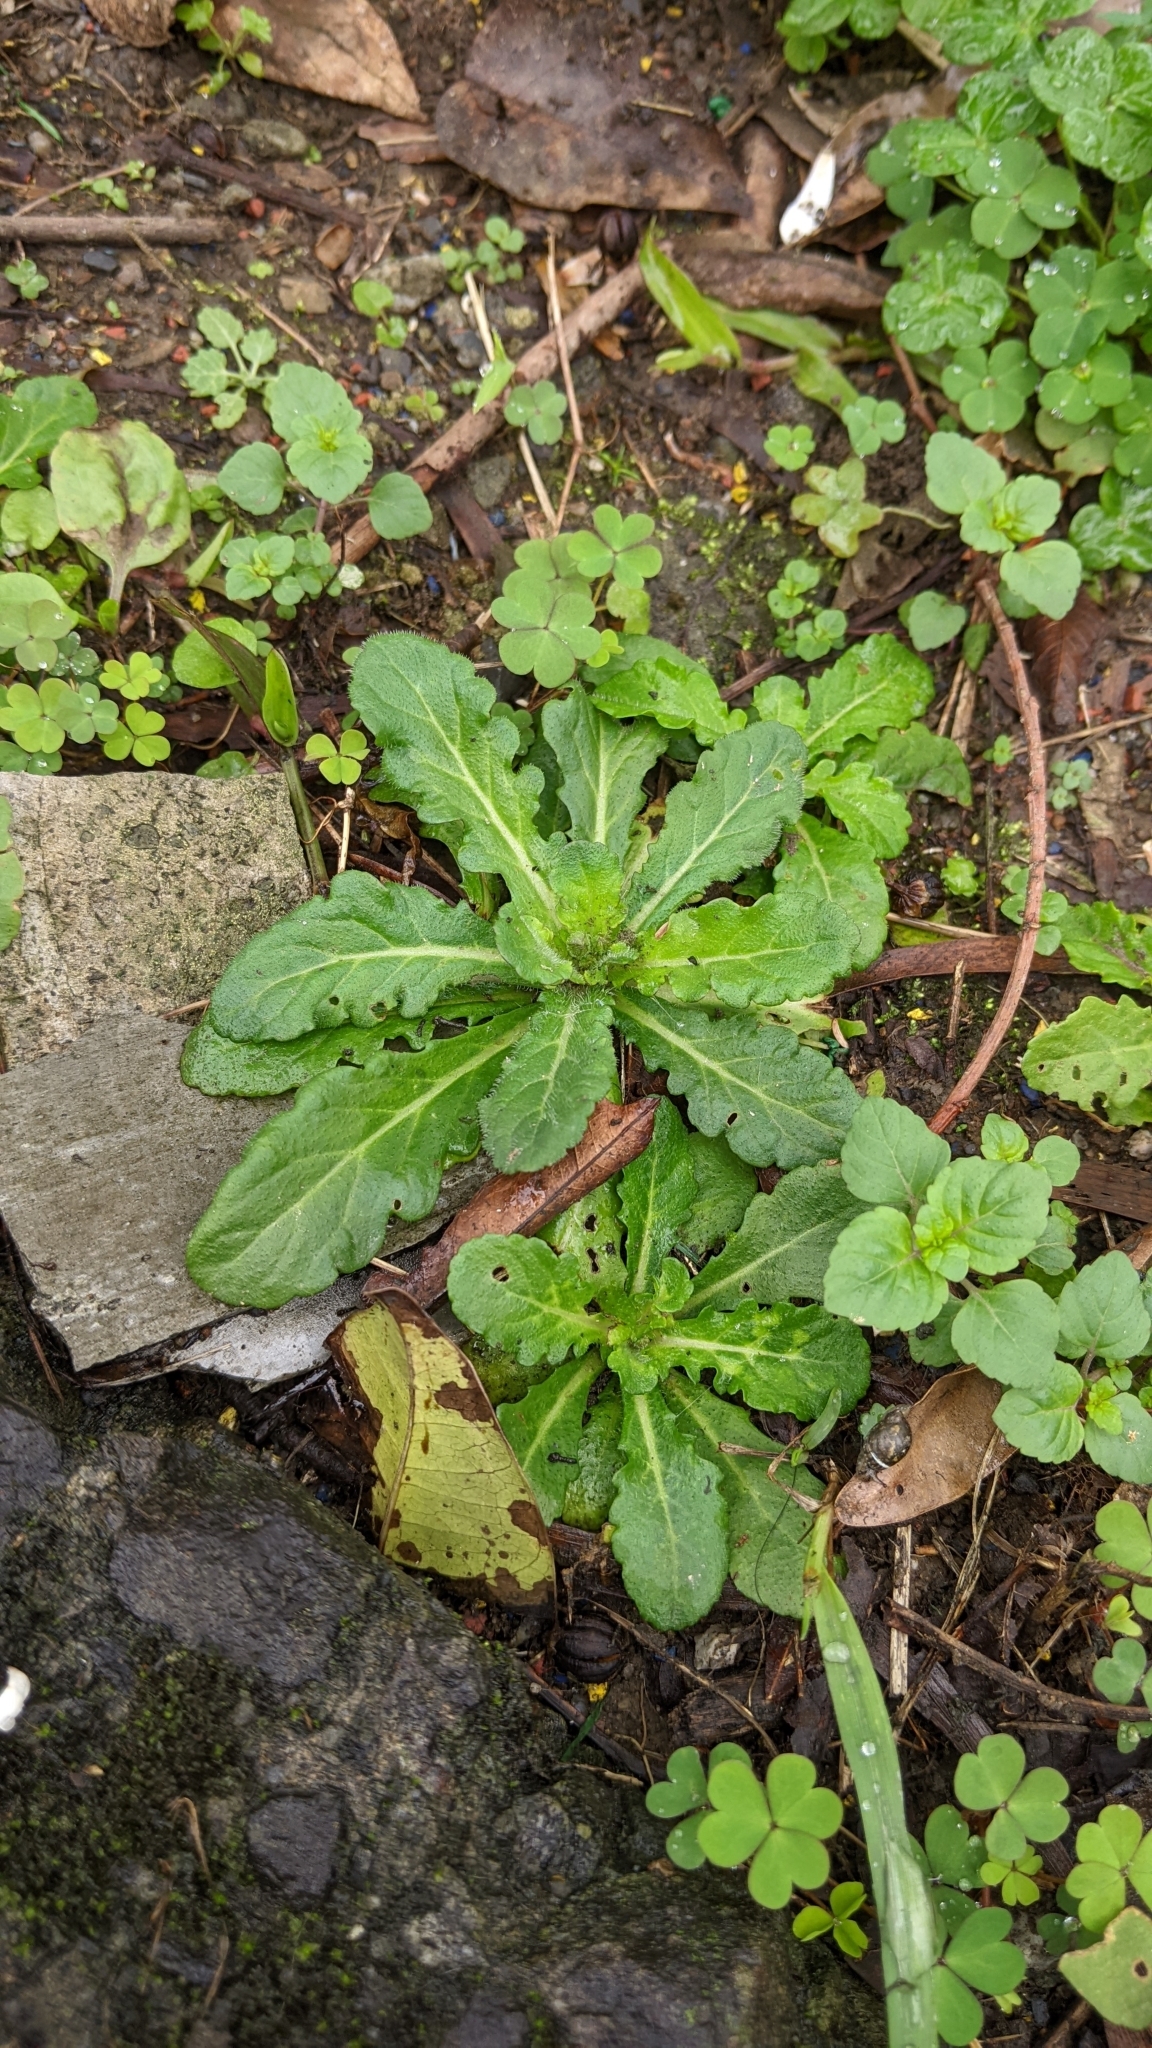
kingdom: Plantae
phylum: Tracheophyta
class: Magnoliopsida
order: Lamiales
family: Mazaceae
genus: Mazus
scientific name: Mazus fauriei
